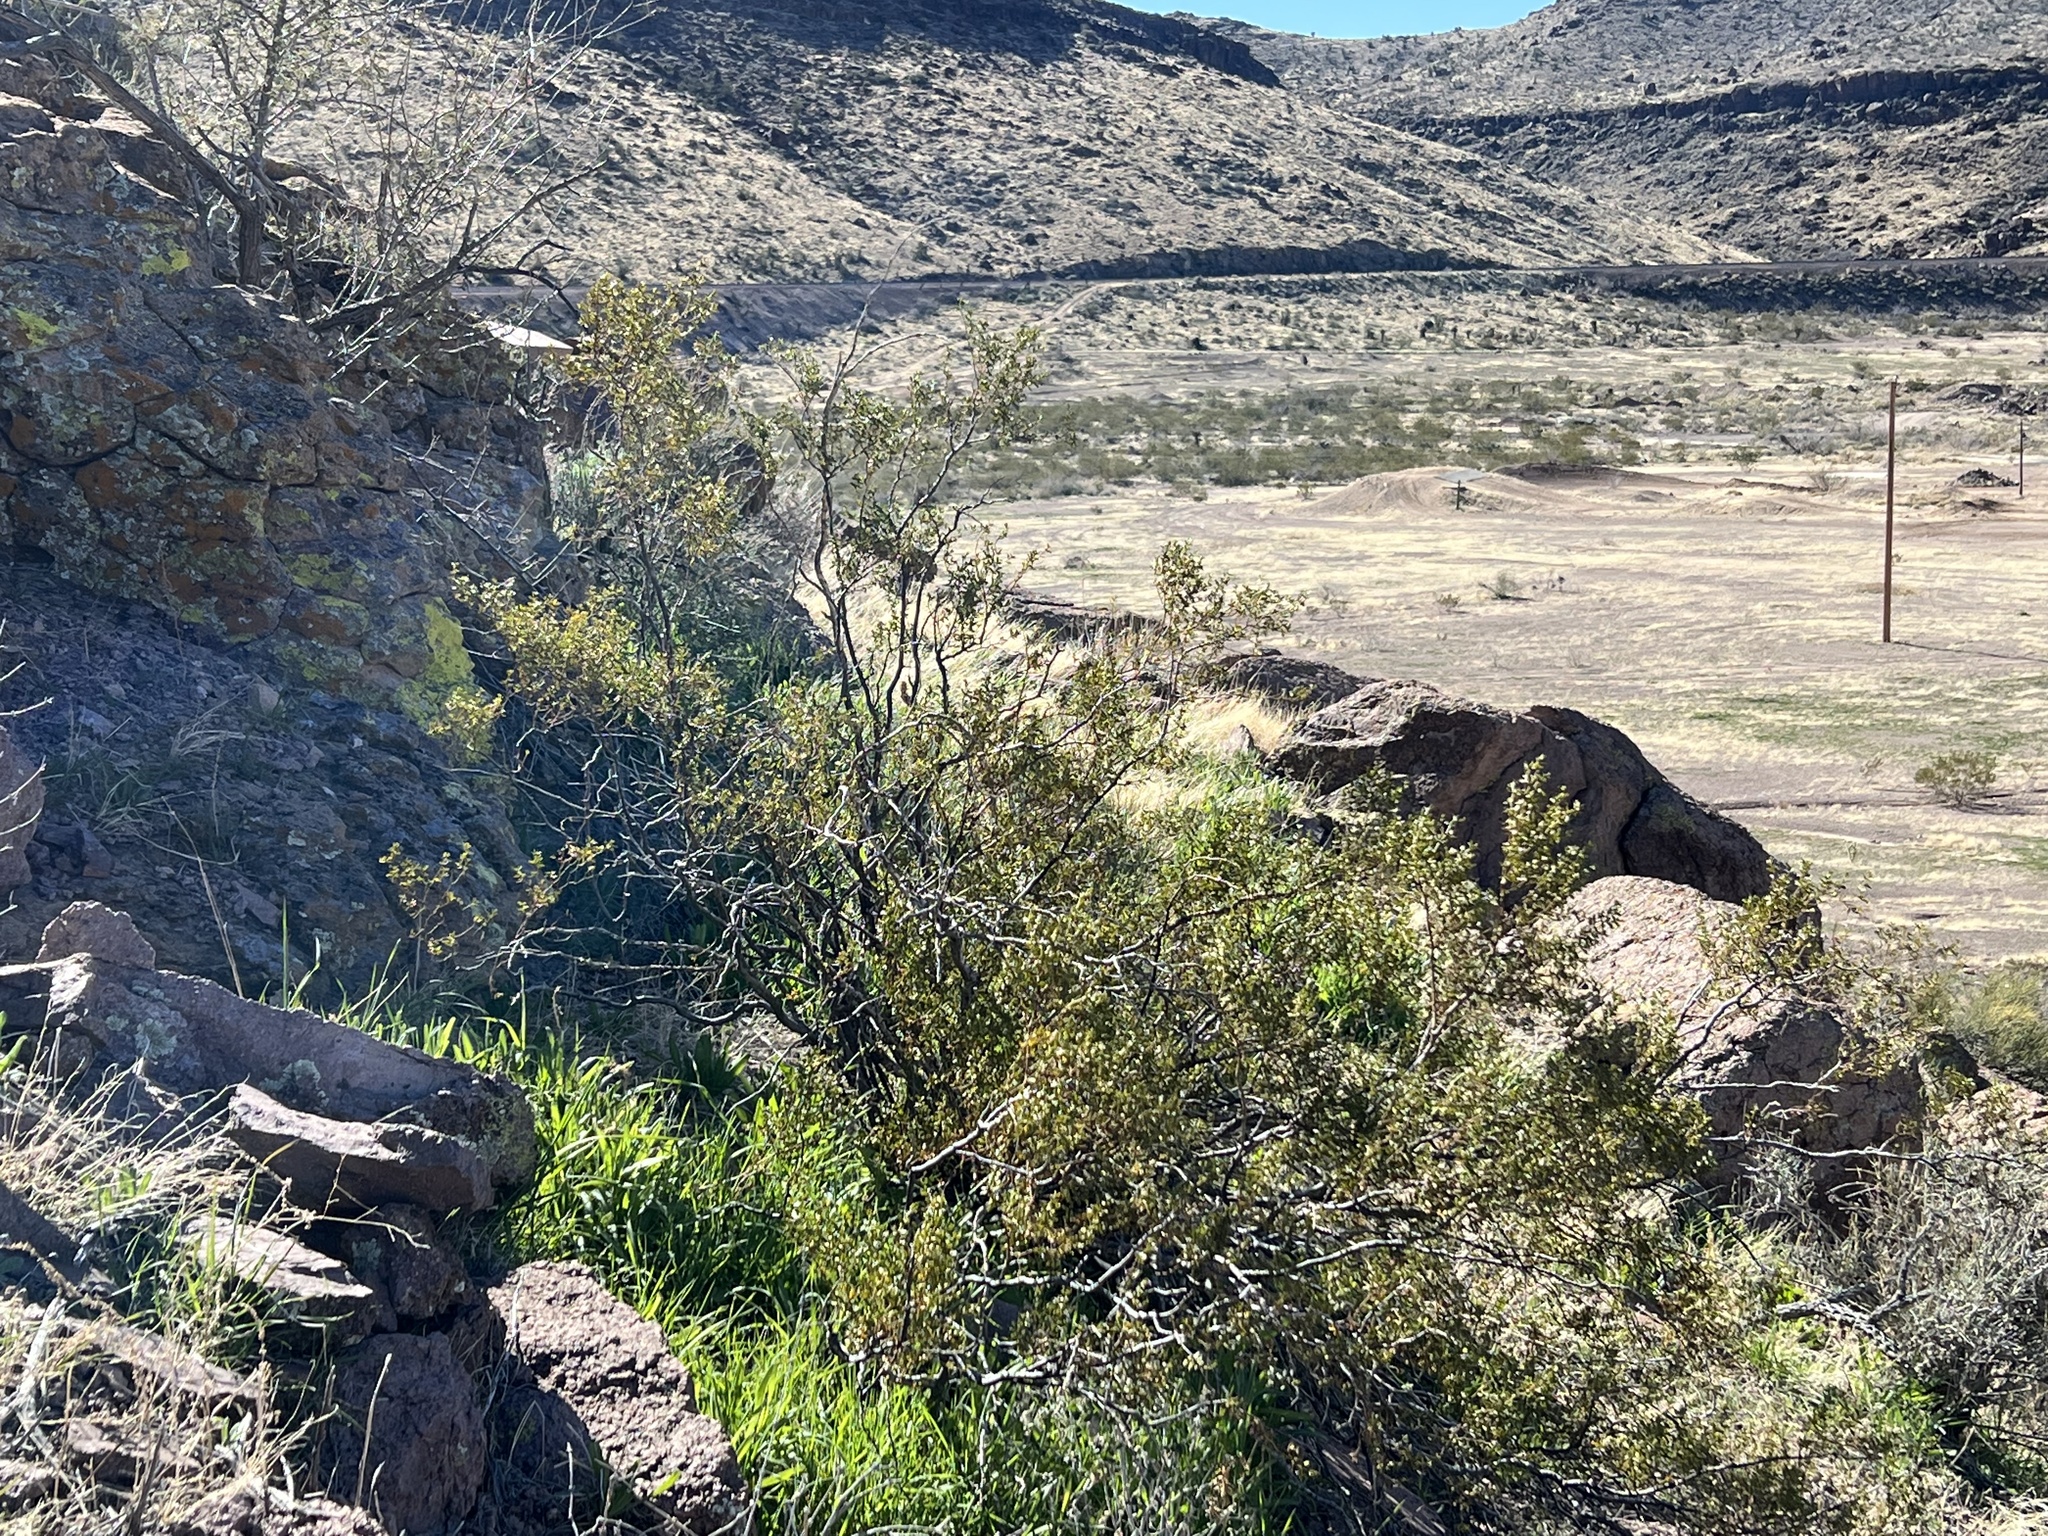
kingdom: Plantae
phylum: Tracheophyta
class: Magnoliopsida
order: Zygophyllales
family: Zygophyllaceae
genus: Larrea
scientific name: Larrea tridentata
